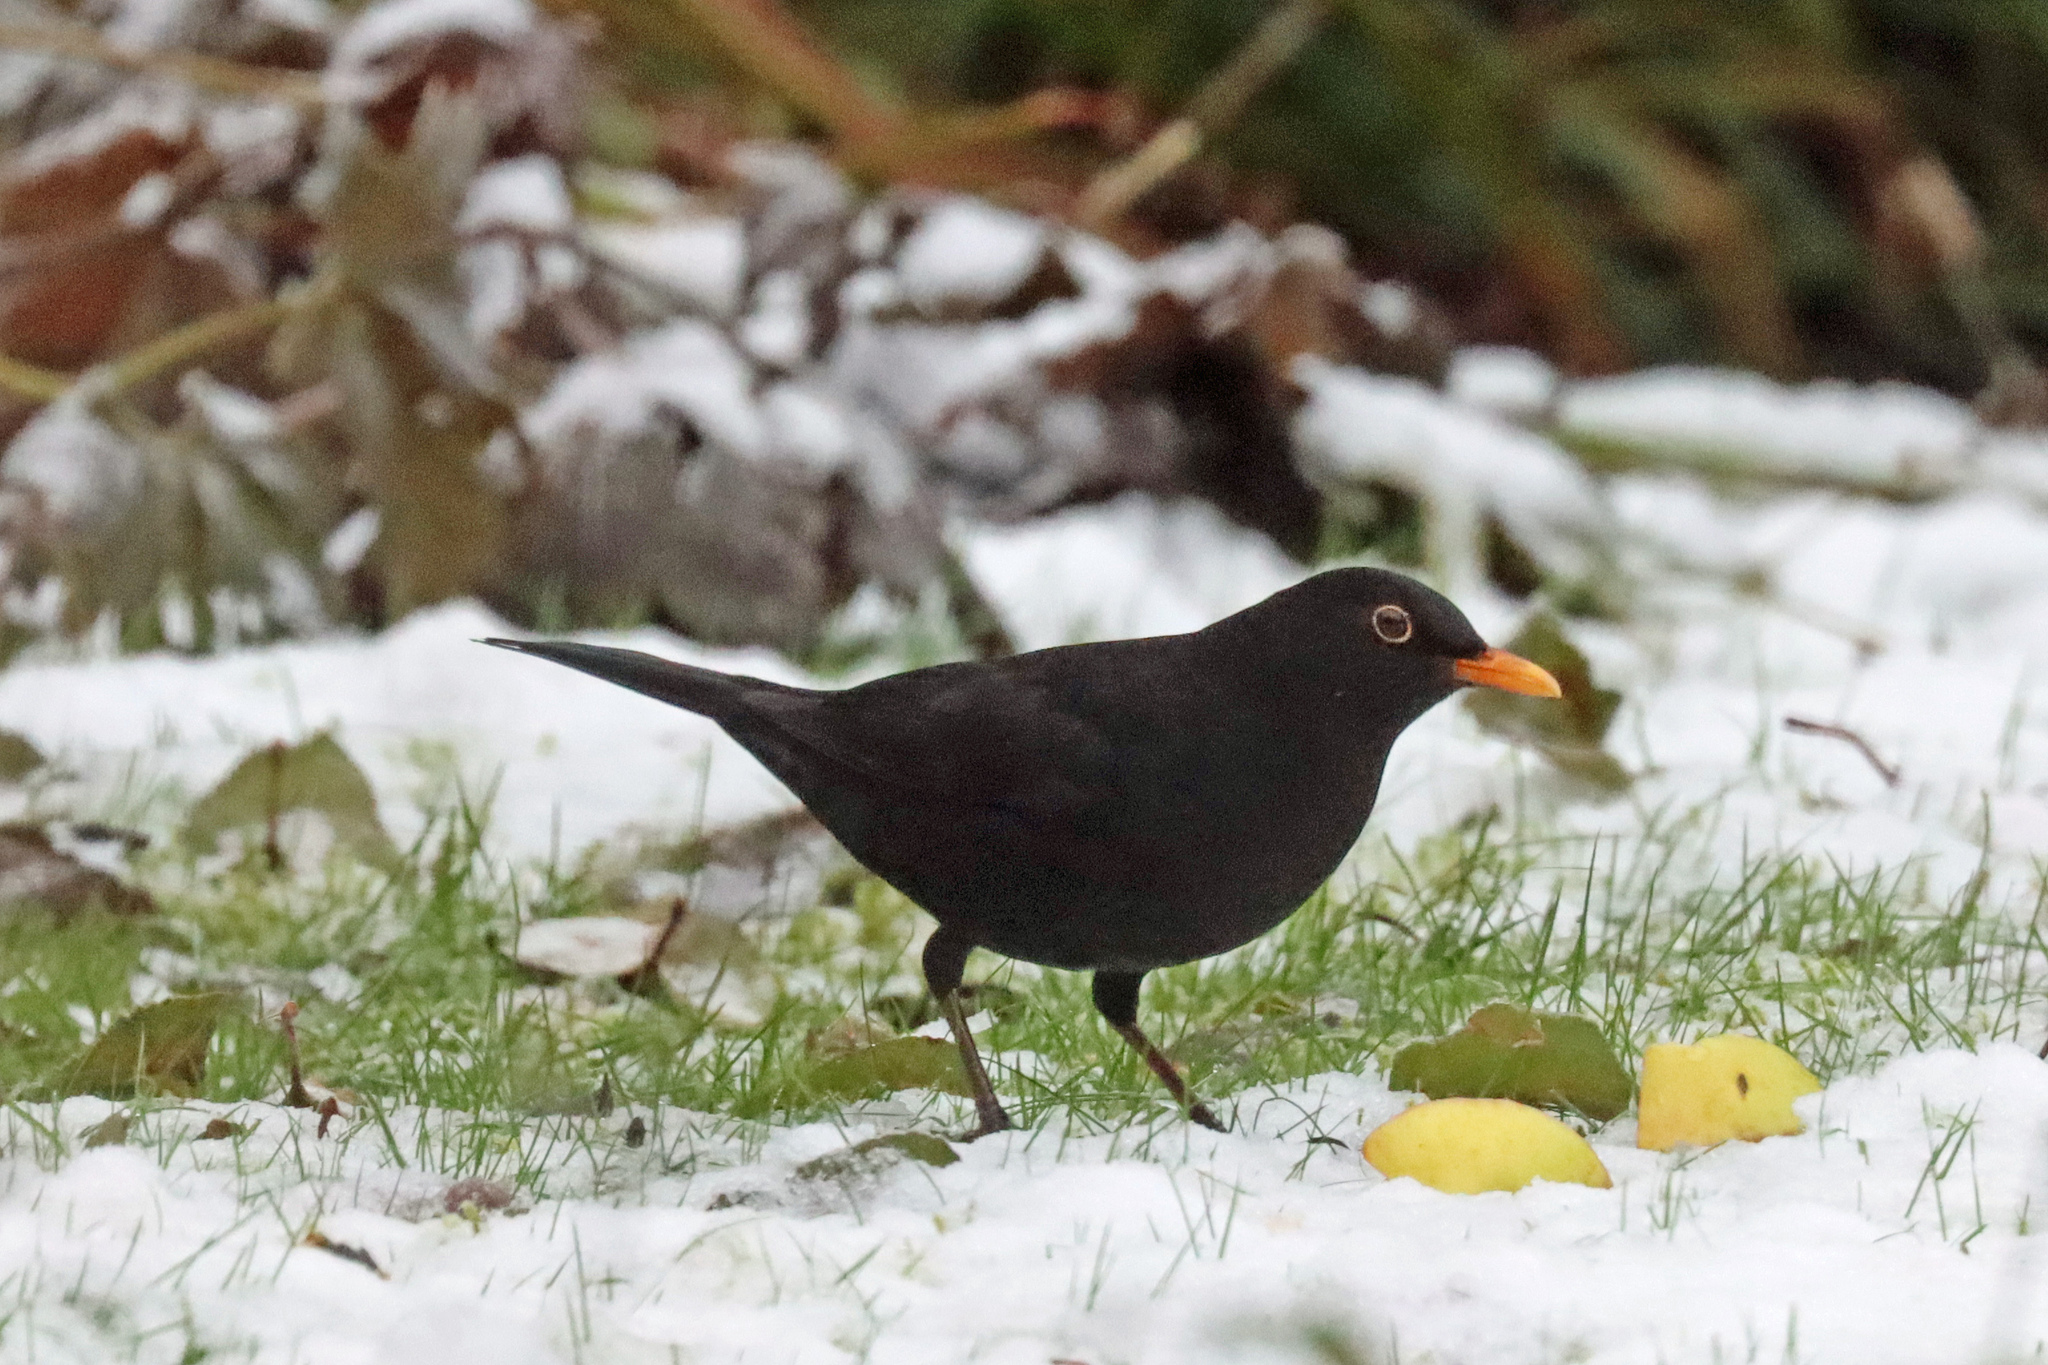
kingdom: Animalia
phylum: Chordata
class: Aves
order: Passeriformes
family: Turdidae
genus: Turdus
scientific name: Turdus merula
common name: Common blackbird
